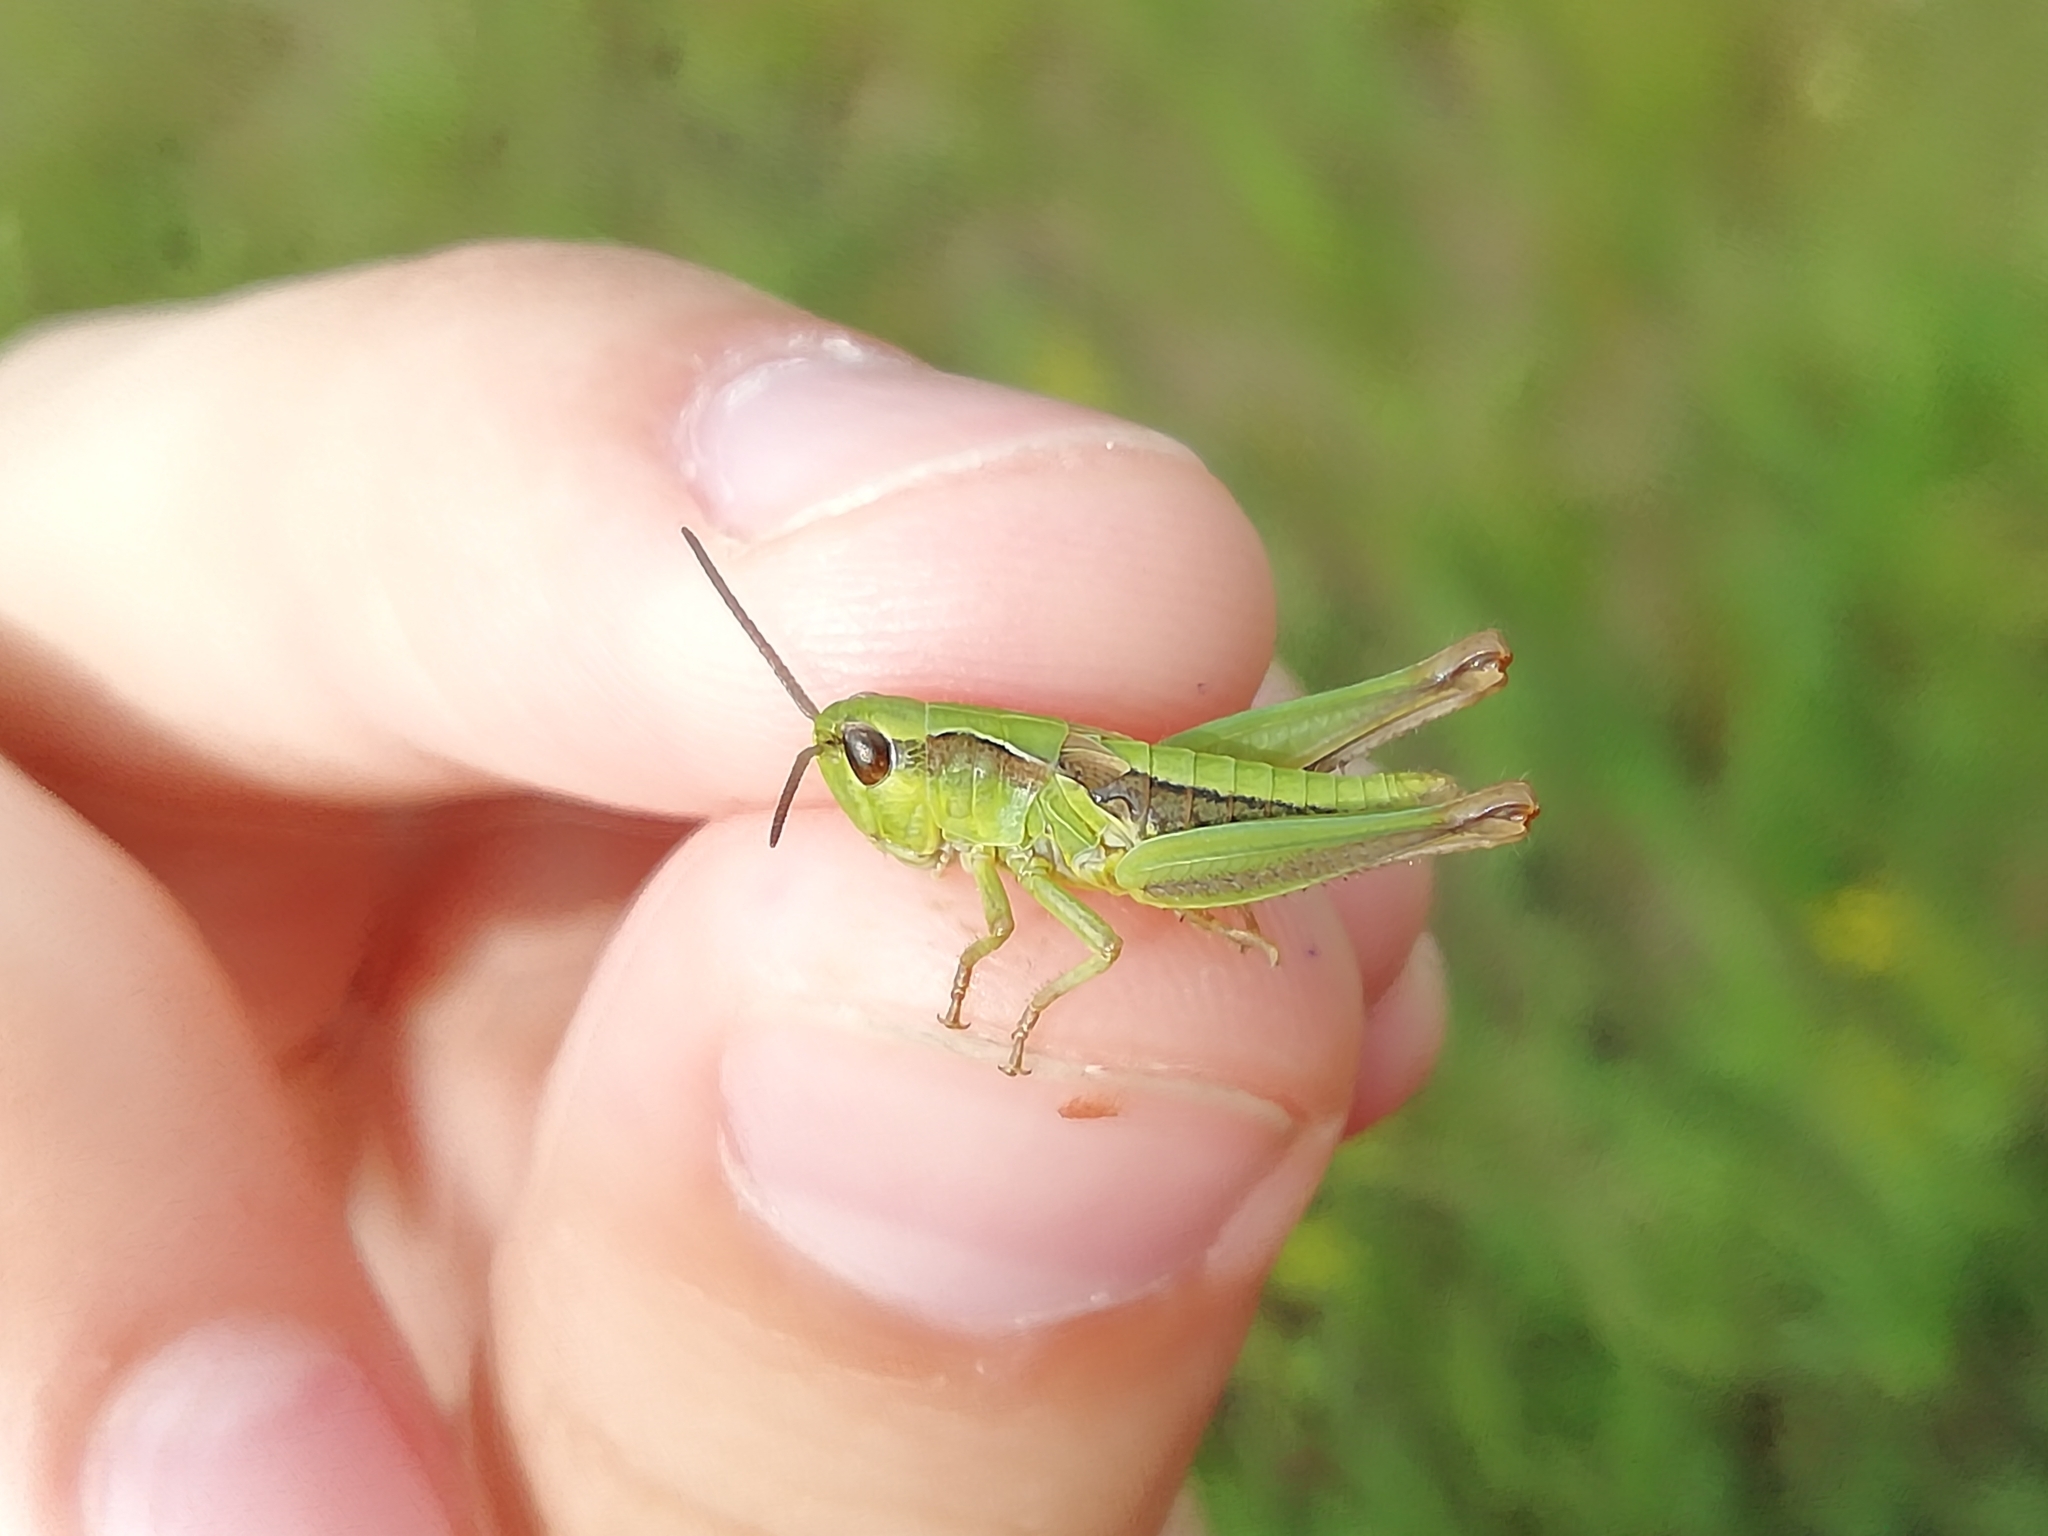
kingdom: Animalia
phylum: Arthropoda
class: Insecta
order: Orthoptera
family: Acrididae
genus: Chorthippus
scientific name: Chorthippus fallax
